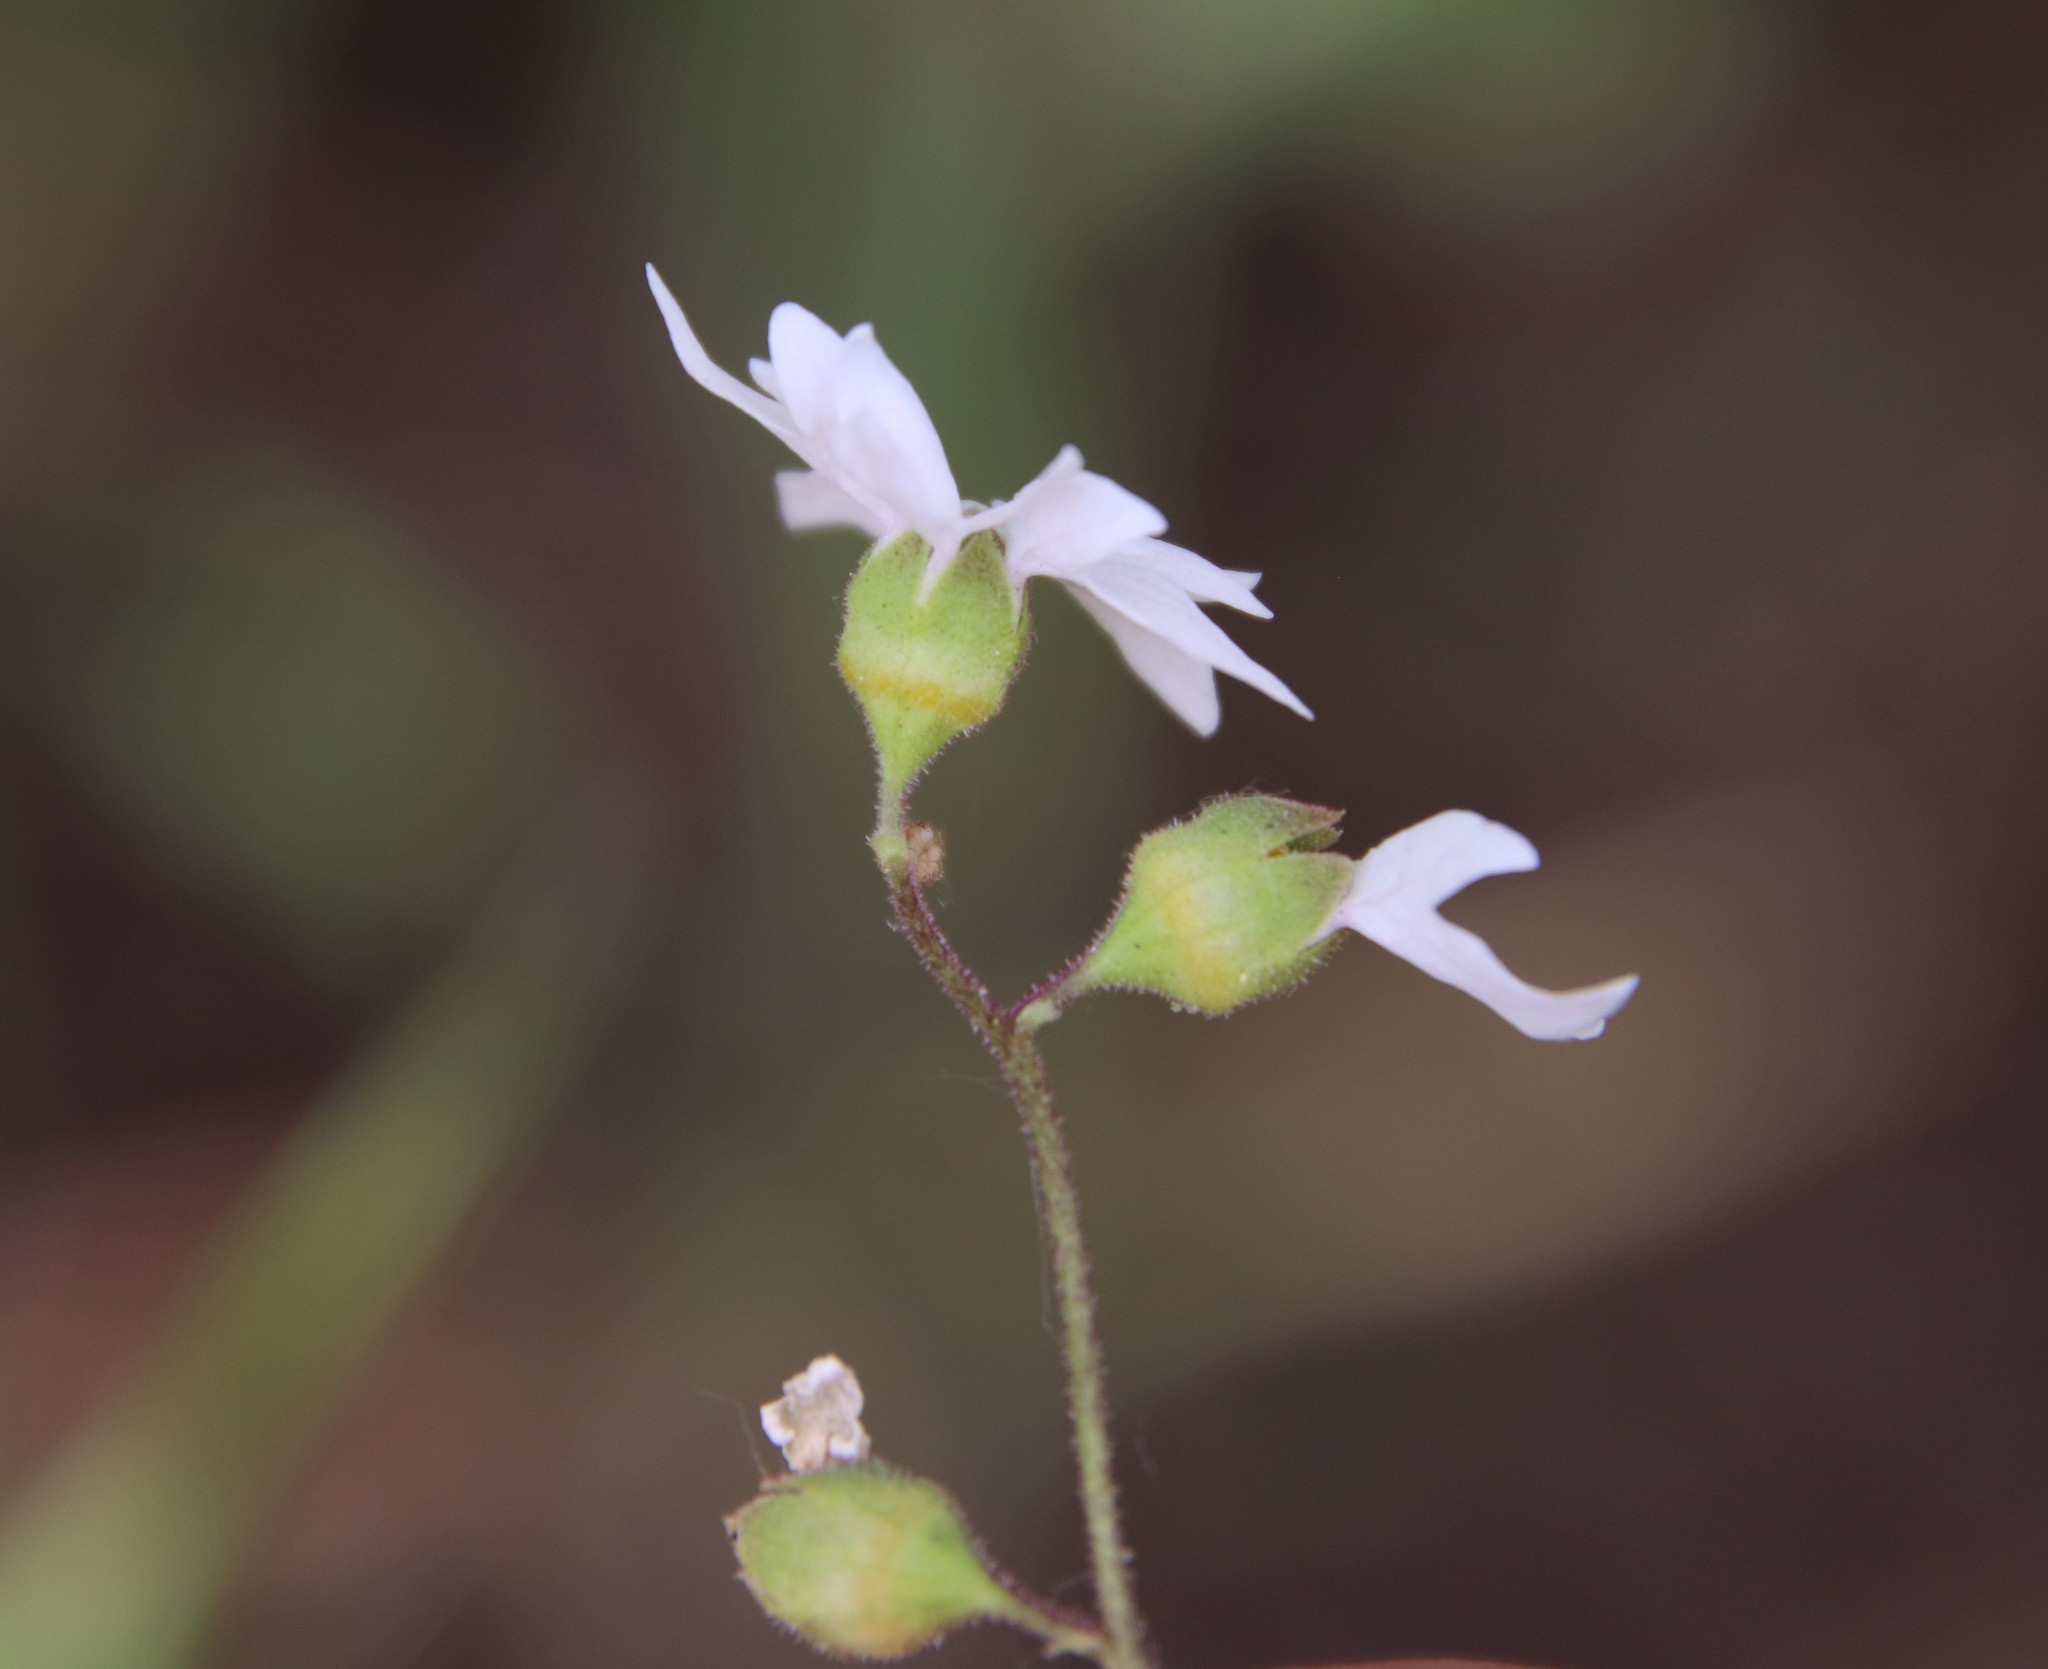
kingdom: Plantae
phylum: Tracheophyta
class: Magnoliopsida
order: Saxifragales
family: Saxifragaceae
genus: Lithophragma
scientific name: Lithophragma affine
